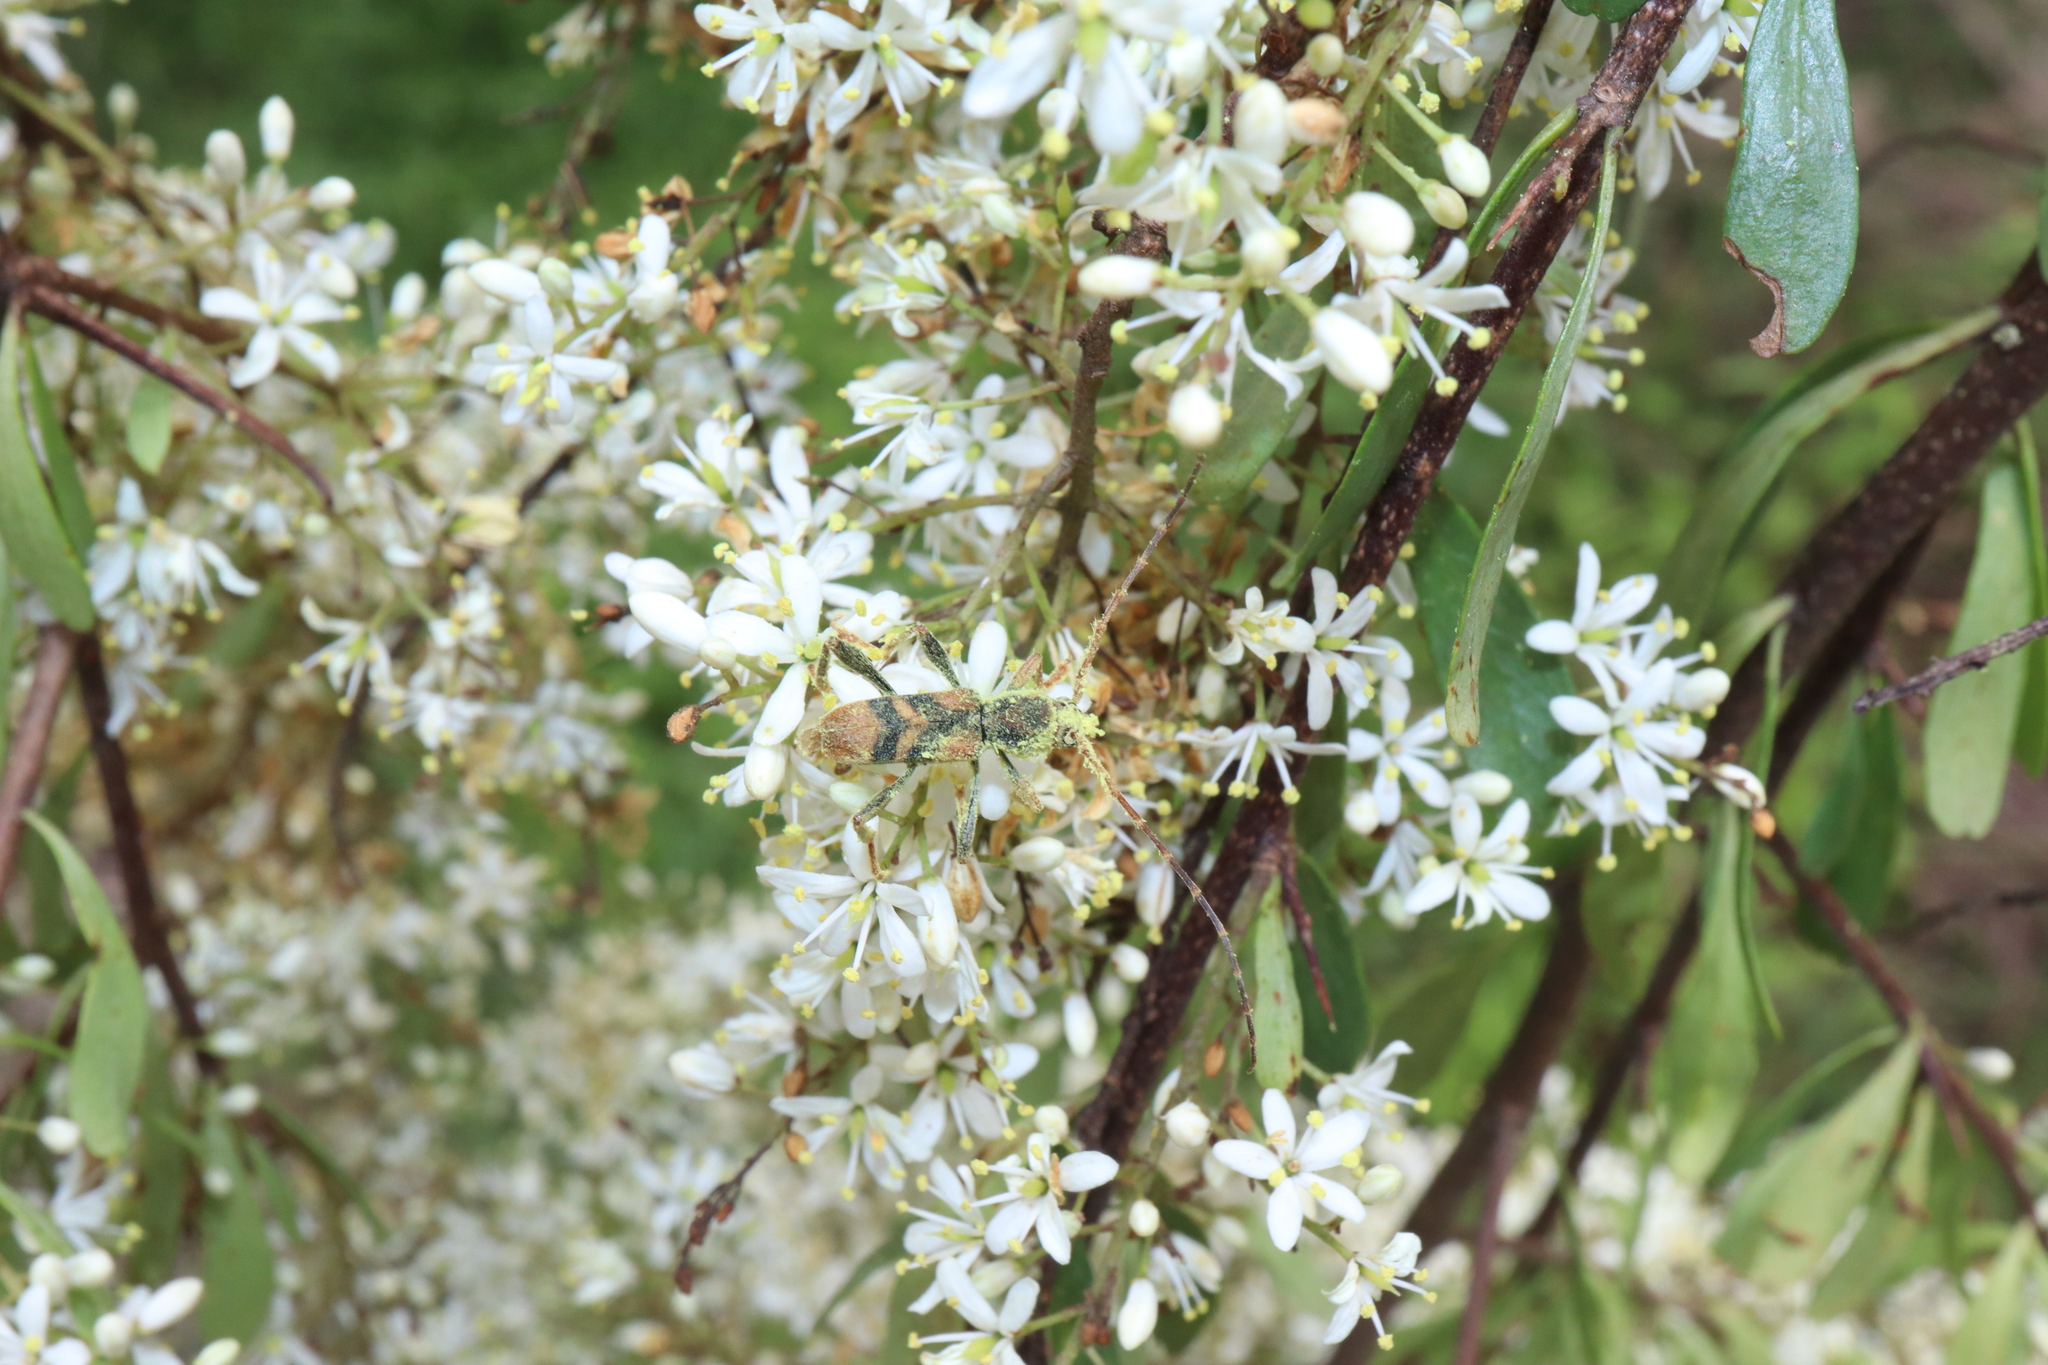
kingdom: Animalia
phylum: Arthropoda
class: Insecta
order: Coleoptera
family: Cerambycidae
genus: Aridaeus
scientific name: Aridaeus thoracicus
